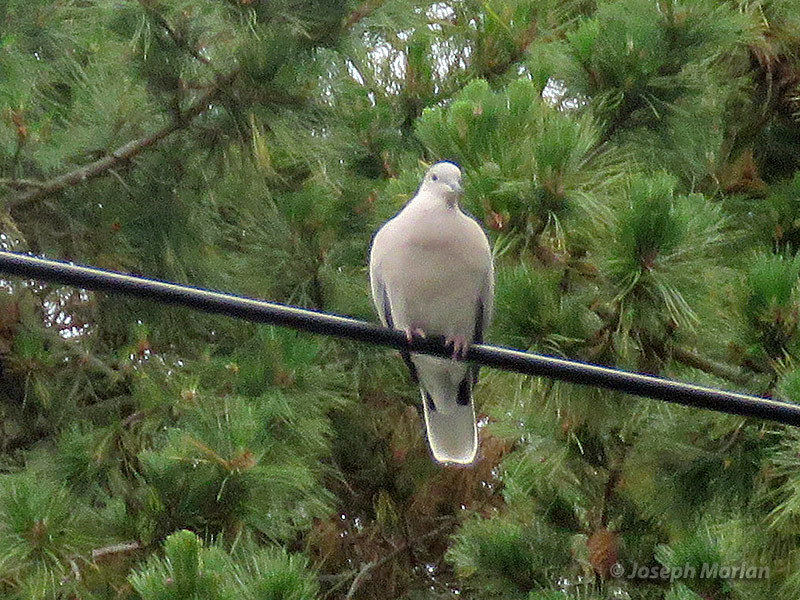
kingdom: Animalia
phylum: Chordata
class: Aves
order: Columbiformes
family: Columbidae
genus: Streptopelia
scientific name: Streptopelia decaocto
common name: Eurasian collared dove
